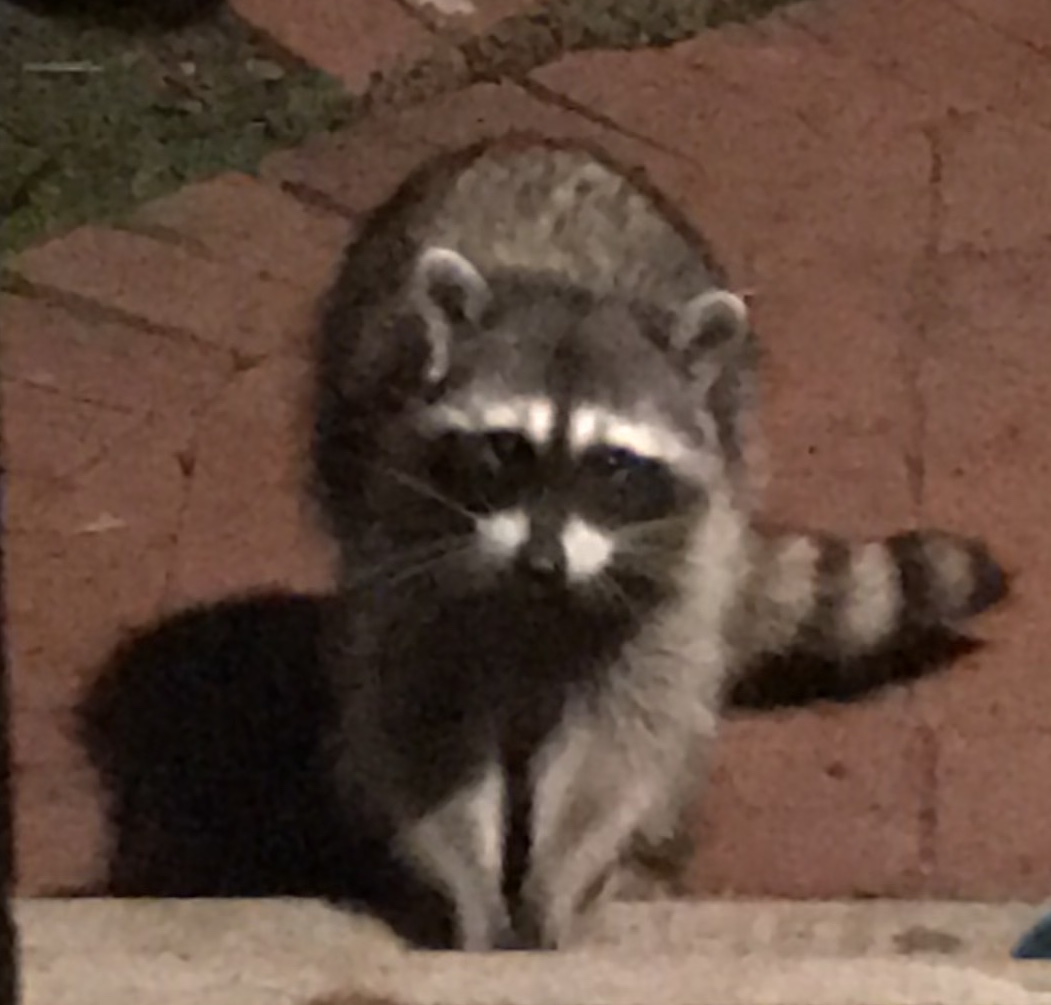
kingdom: Animalia
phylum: Chordata
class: Mammalia
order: Carnivora
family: Procyonidae
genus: Procyon
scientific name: Procyon lotor
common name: Raccoon
